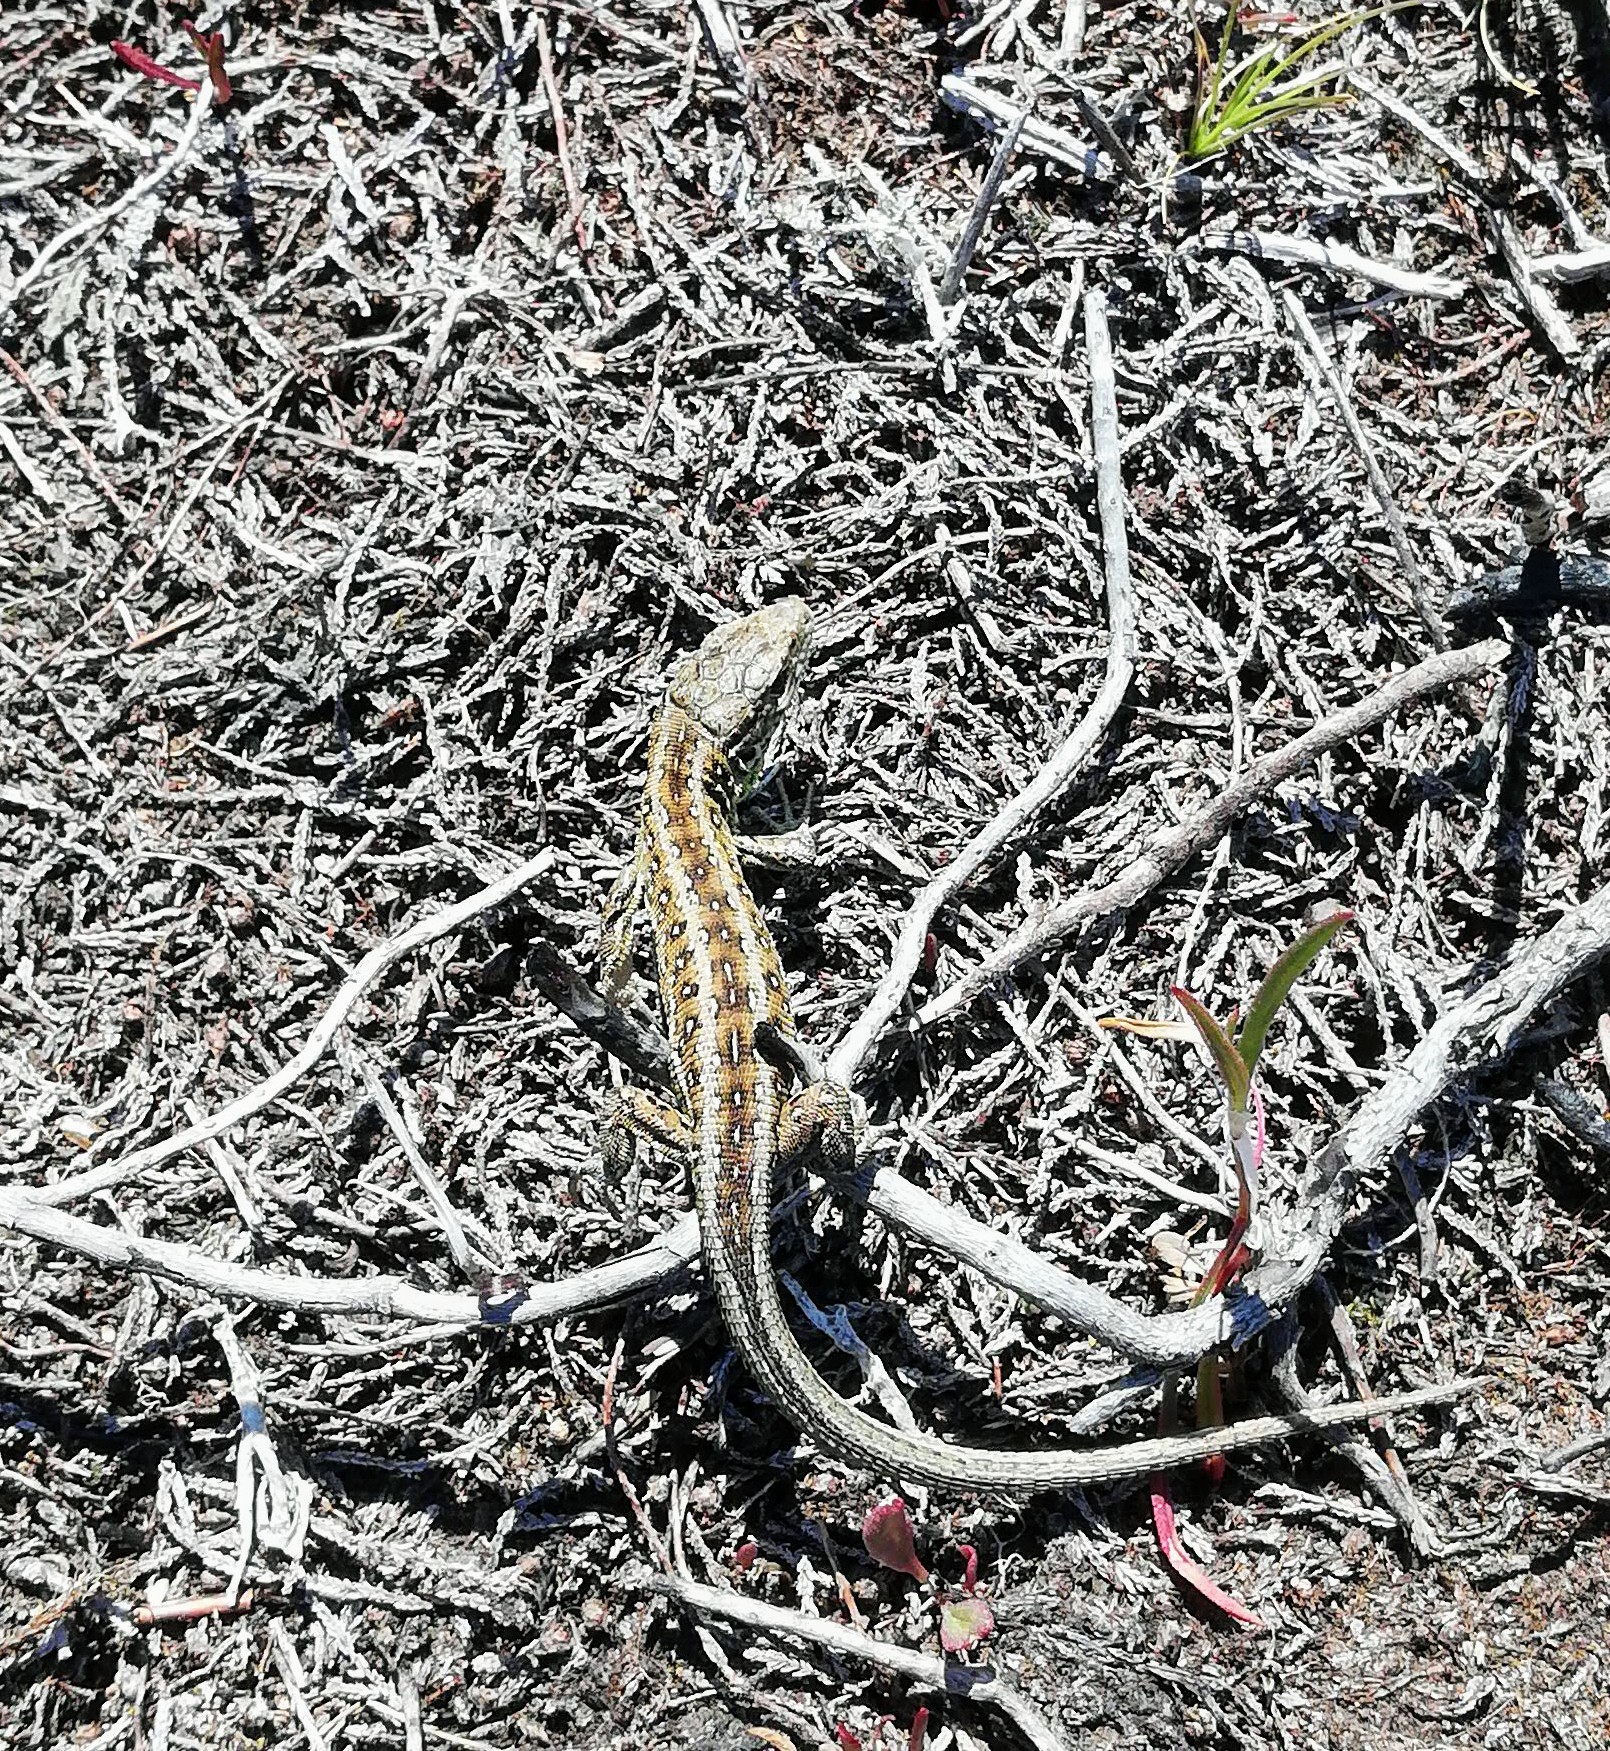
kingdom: Animalia
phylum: Chordata
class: Squamata
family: Lacertidae
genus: Lacerta
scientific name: Lacerta agilis
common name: Sand lizard
